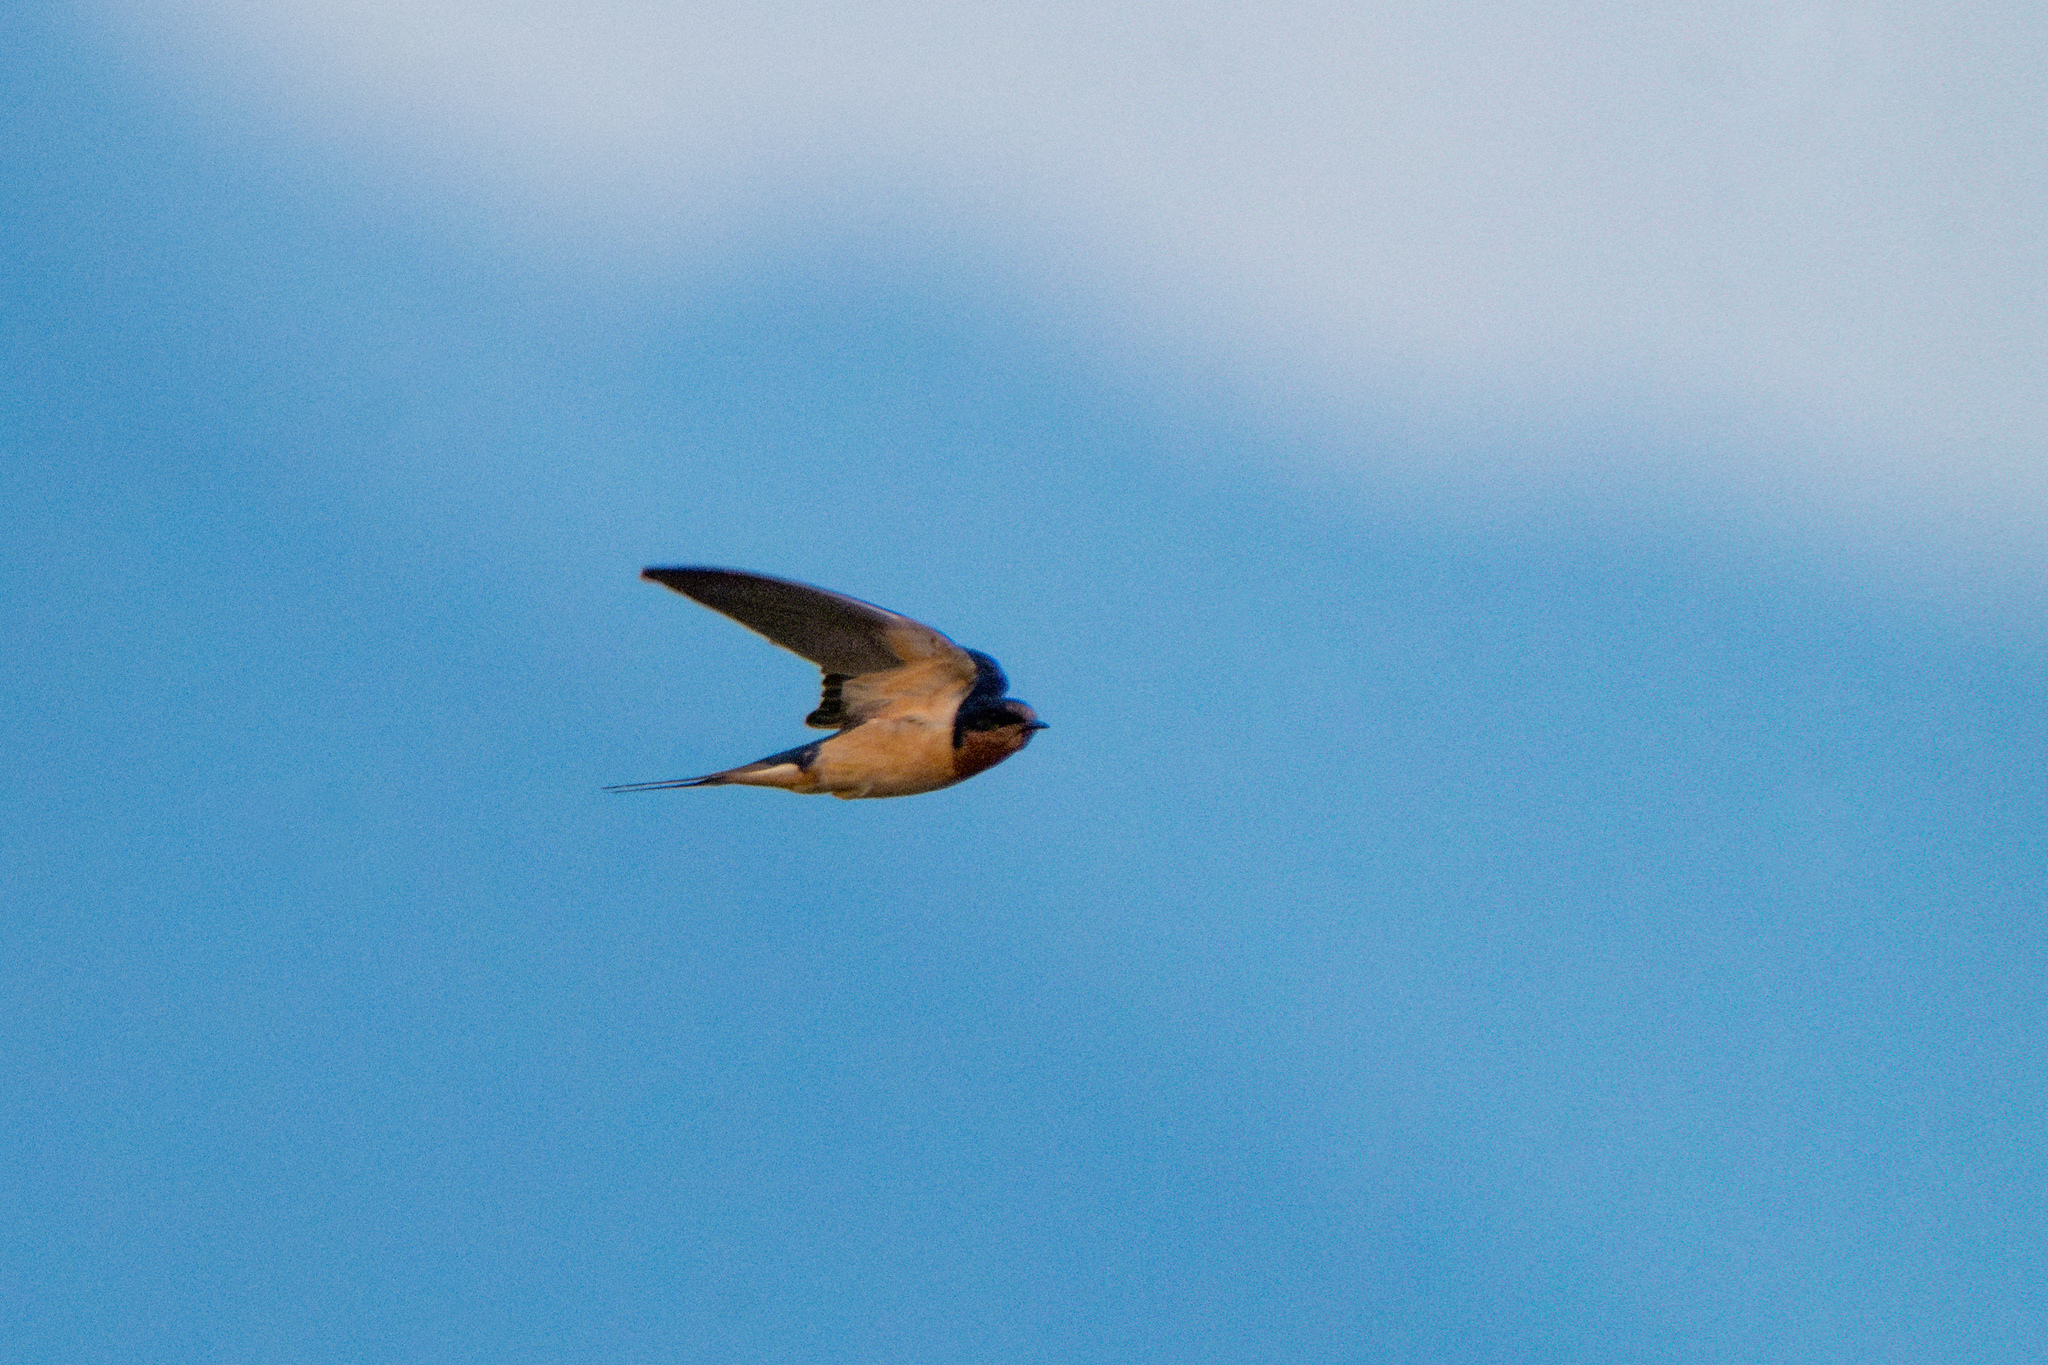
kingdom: Animalia
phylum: Chordata
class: Aves
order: Passeriformes
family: Hirundinidae
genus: Hirundo
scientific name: Hirundo rustica
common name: Barn swallow
